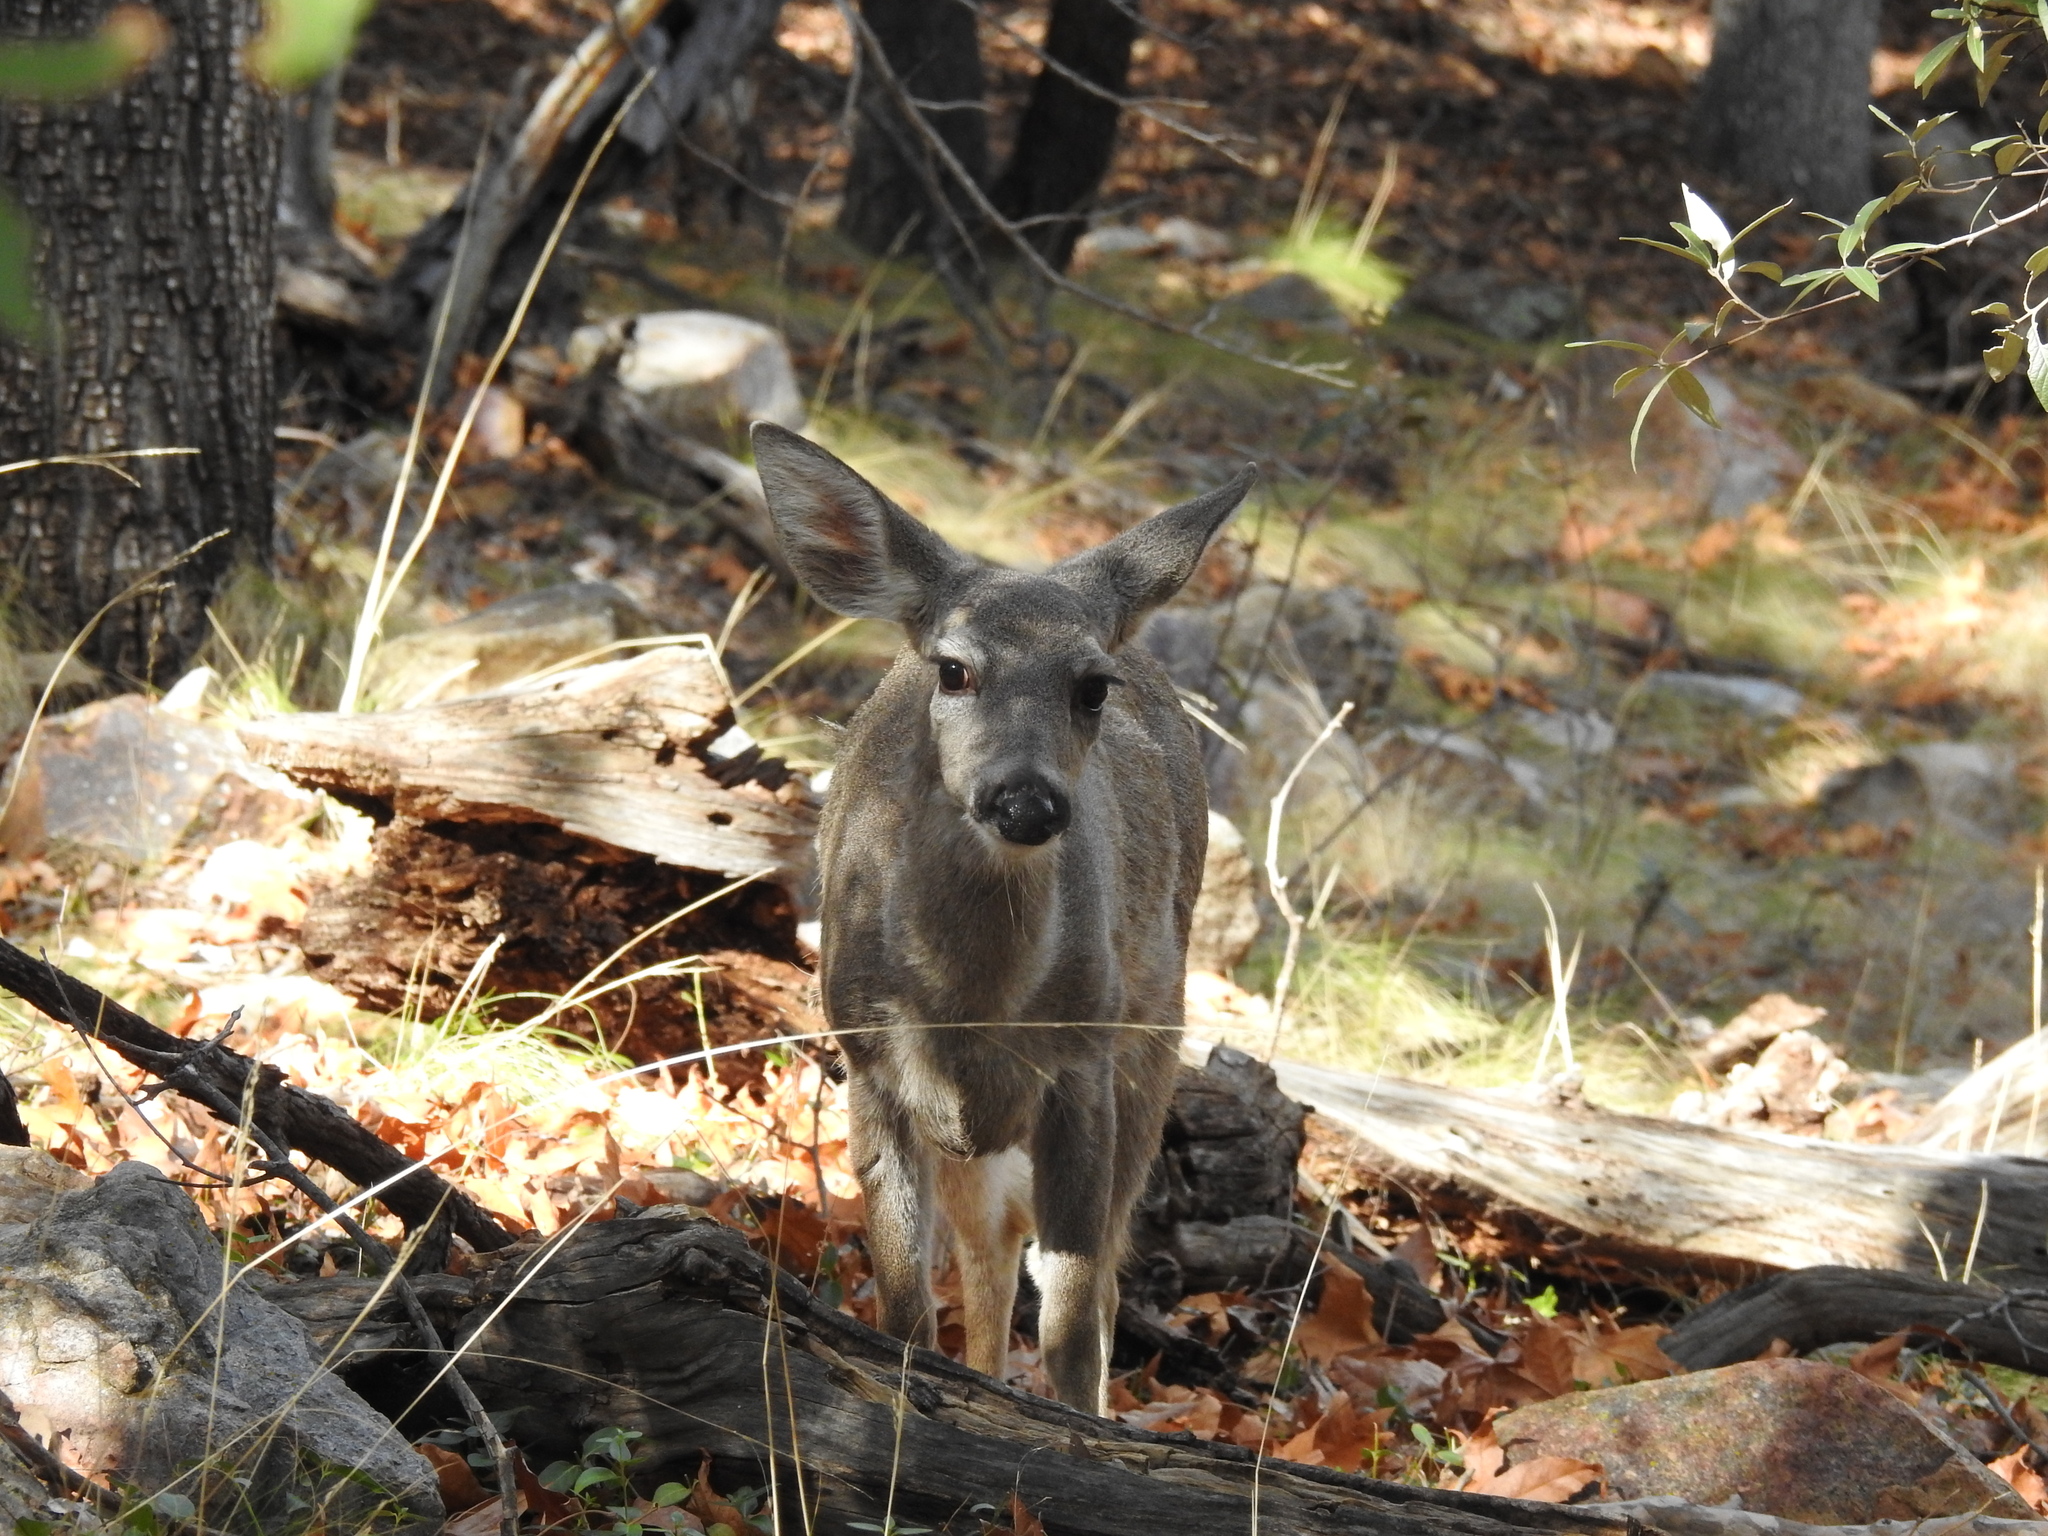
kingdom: Animalia
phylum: Chordata
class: Mammalia
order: Artiodactyla
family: Cervidae
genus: Odocoileus
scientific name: Odocoileus virginianus
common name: White-tailed deer
